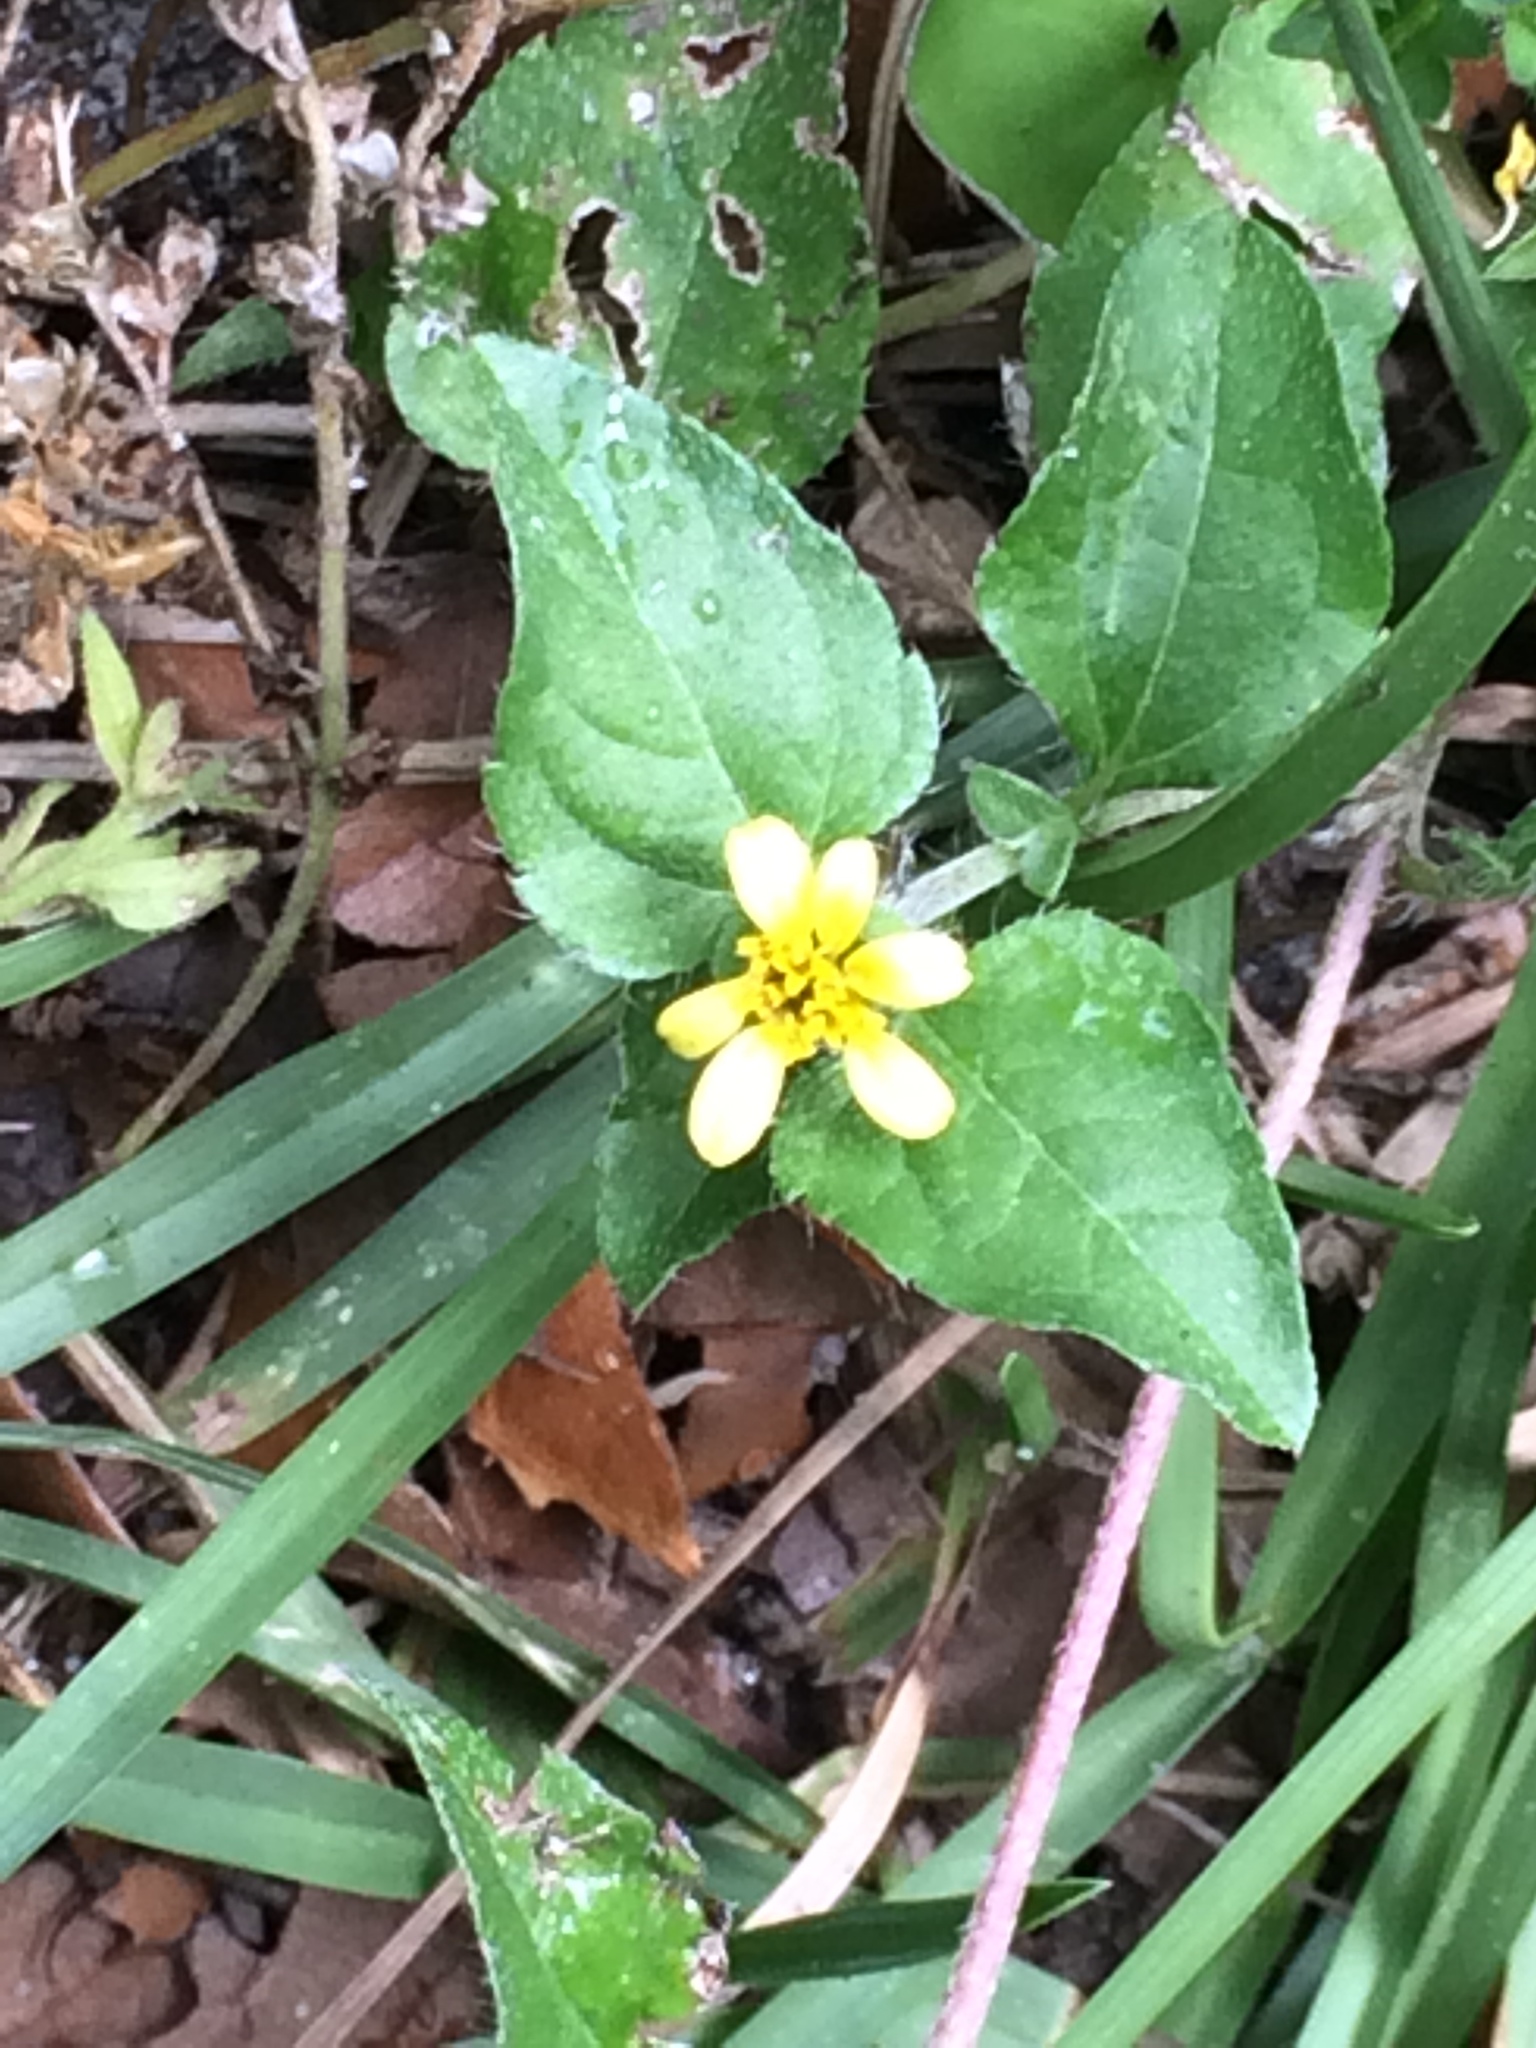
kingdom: Plantae
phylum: Tracheophyta
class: Magnoliopsida
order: Asterales
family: Asteraceae
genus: Calyptocarpus
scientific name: Calyptocarpus vialis
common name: Straggler daisy
